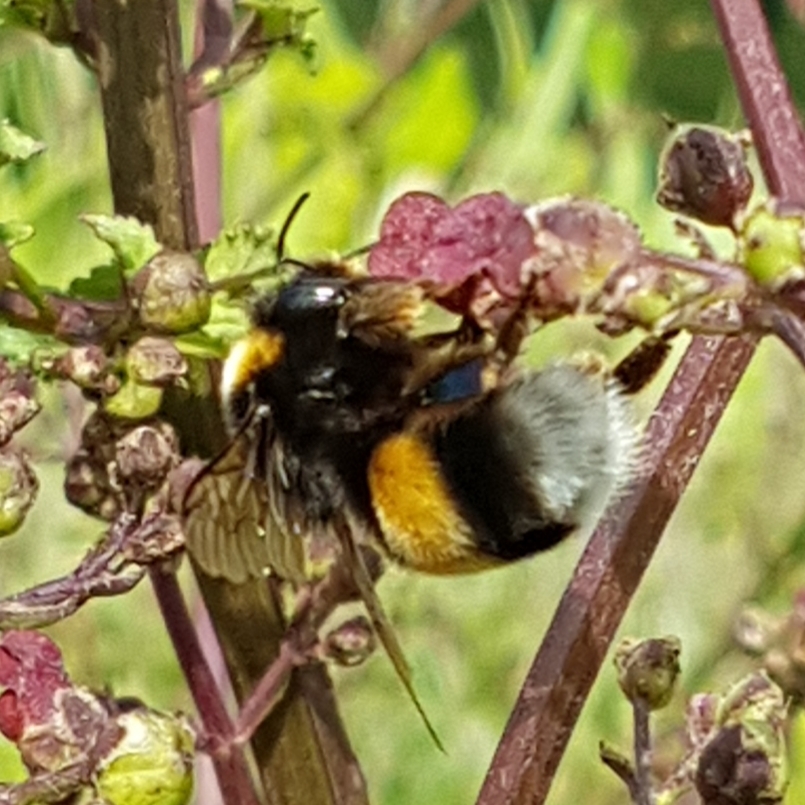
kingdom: Animalia
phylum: Arthropoda
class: Insecta
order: Hymenoptera
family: Apidae
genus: Bombus
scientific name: Bombus terrestris
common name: Buff-tailed bumblebee
